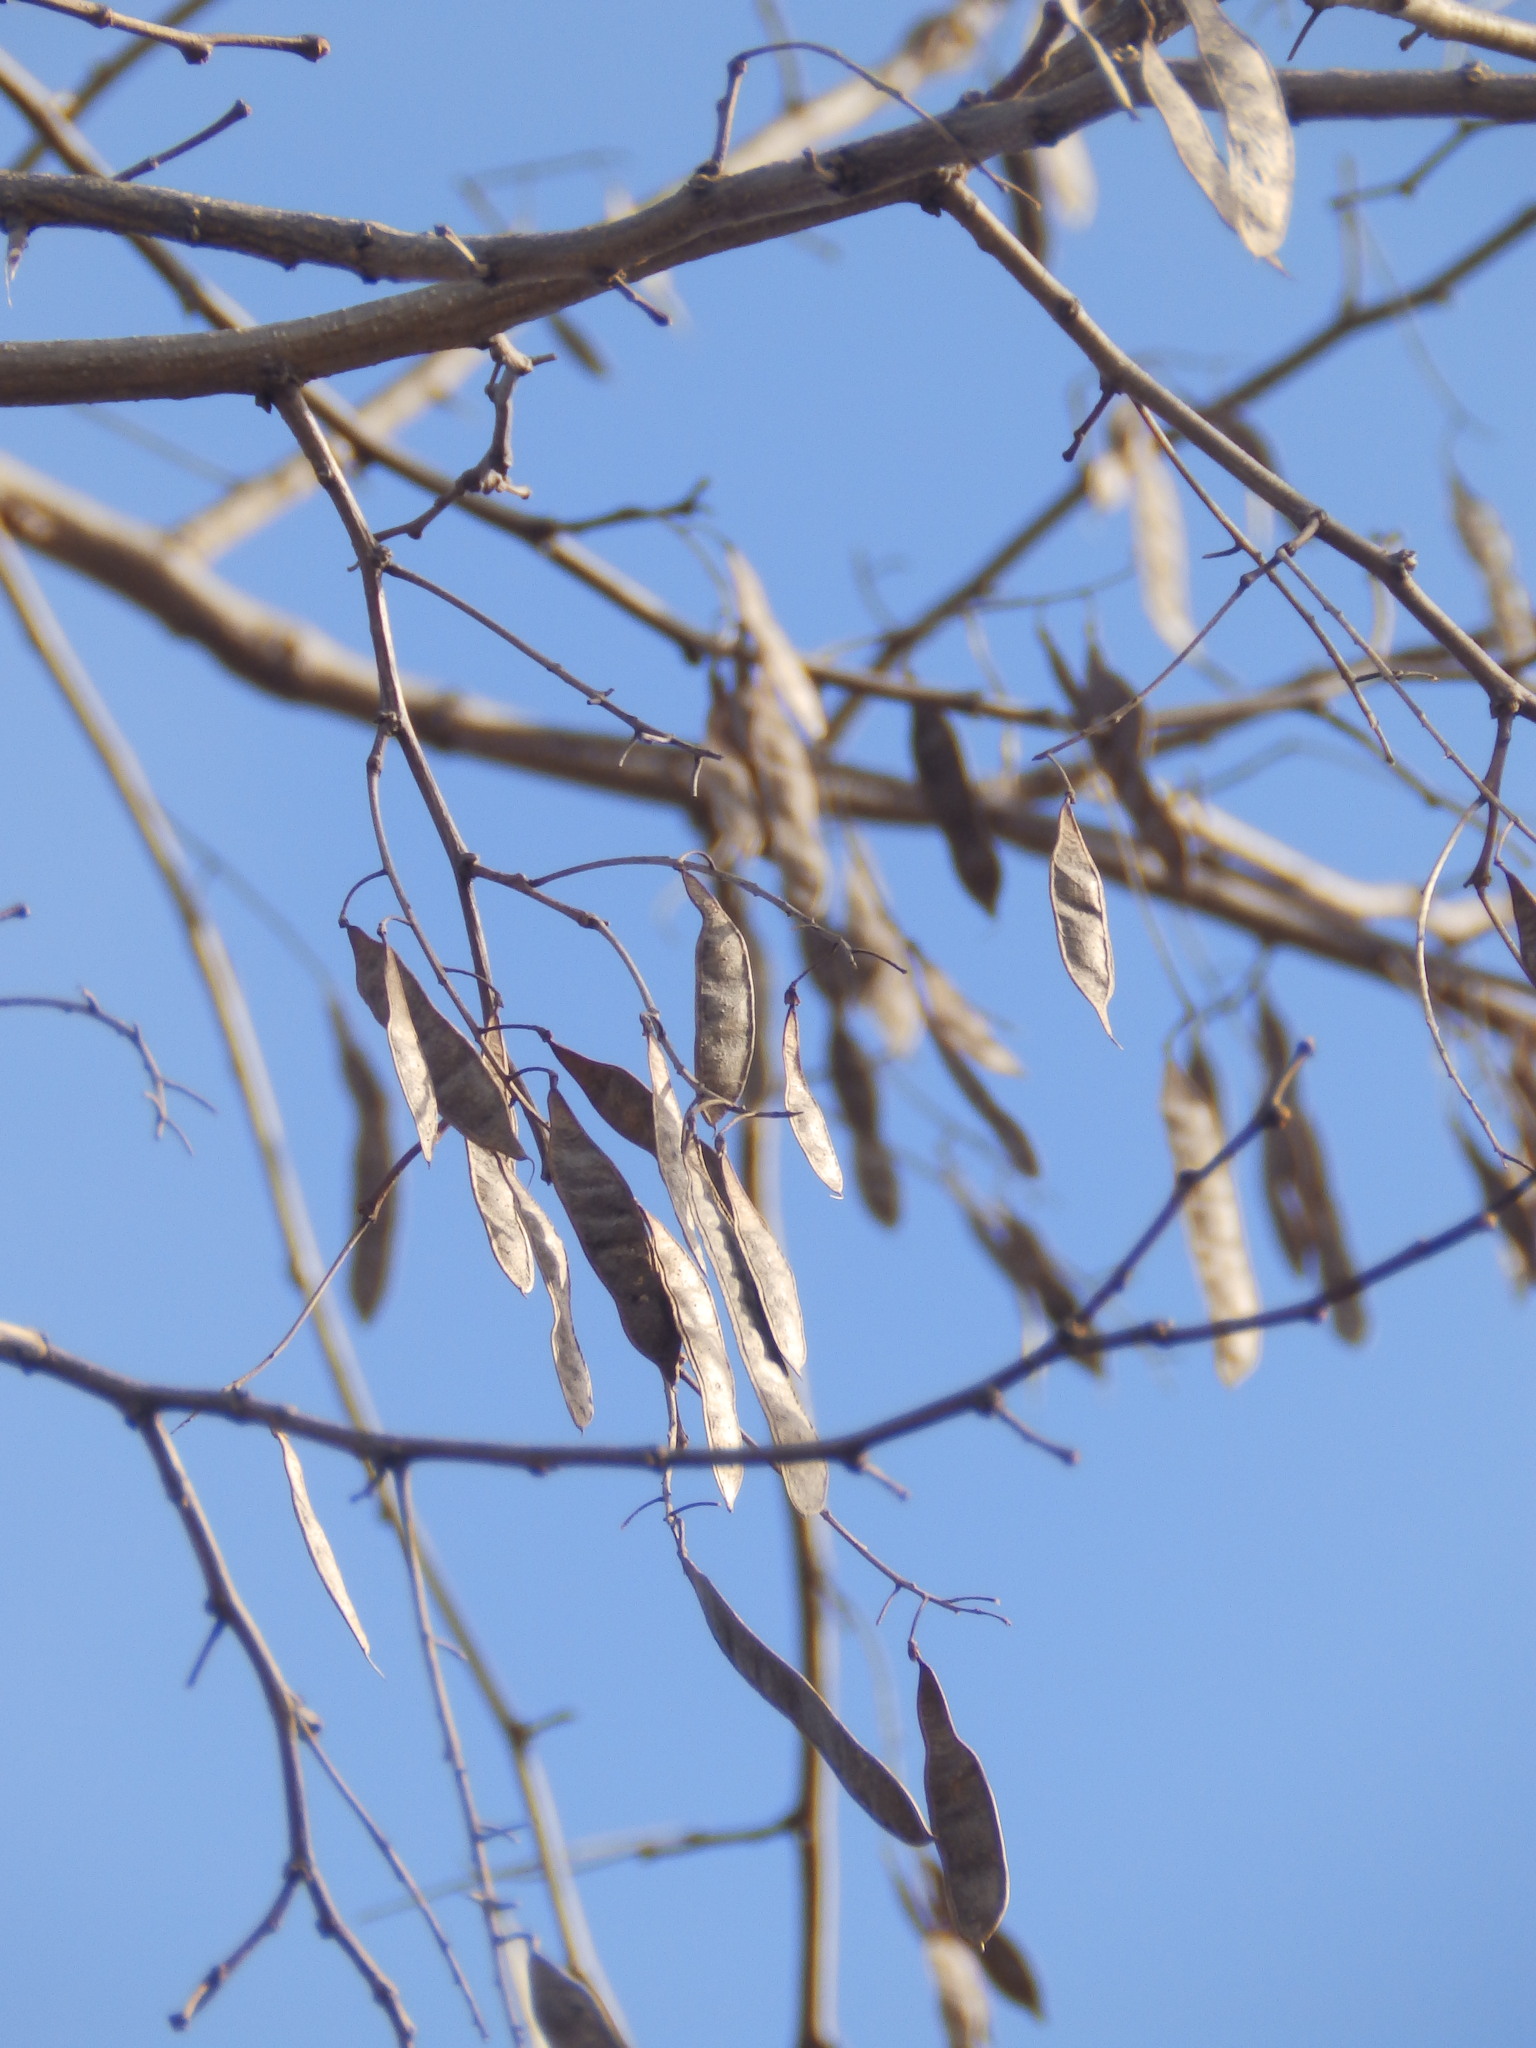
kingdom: Plantae
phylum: Tracheophyta
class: Magnoliopsida
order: Fabales
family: Fabaceae
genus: Robinia
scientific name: Robinia pseudoacacia
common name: Black locust
